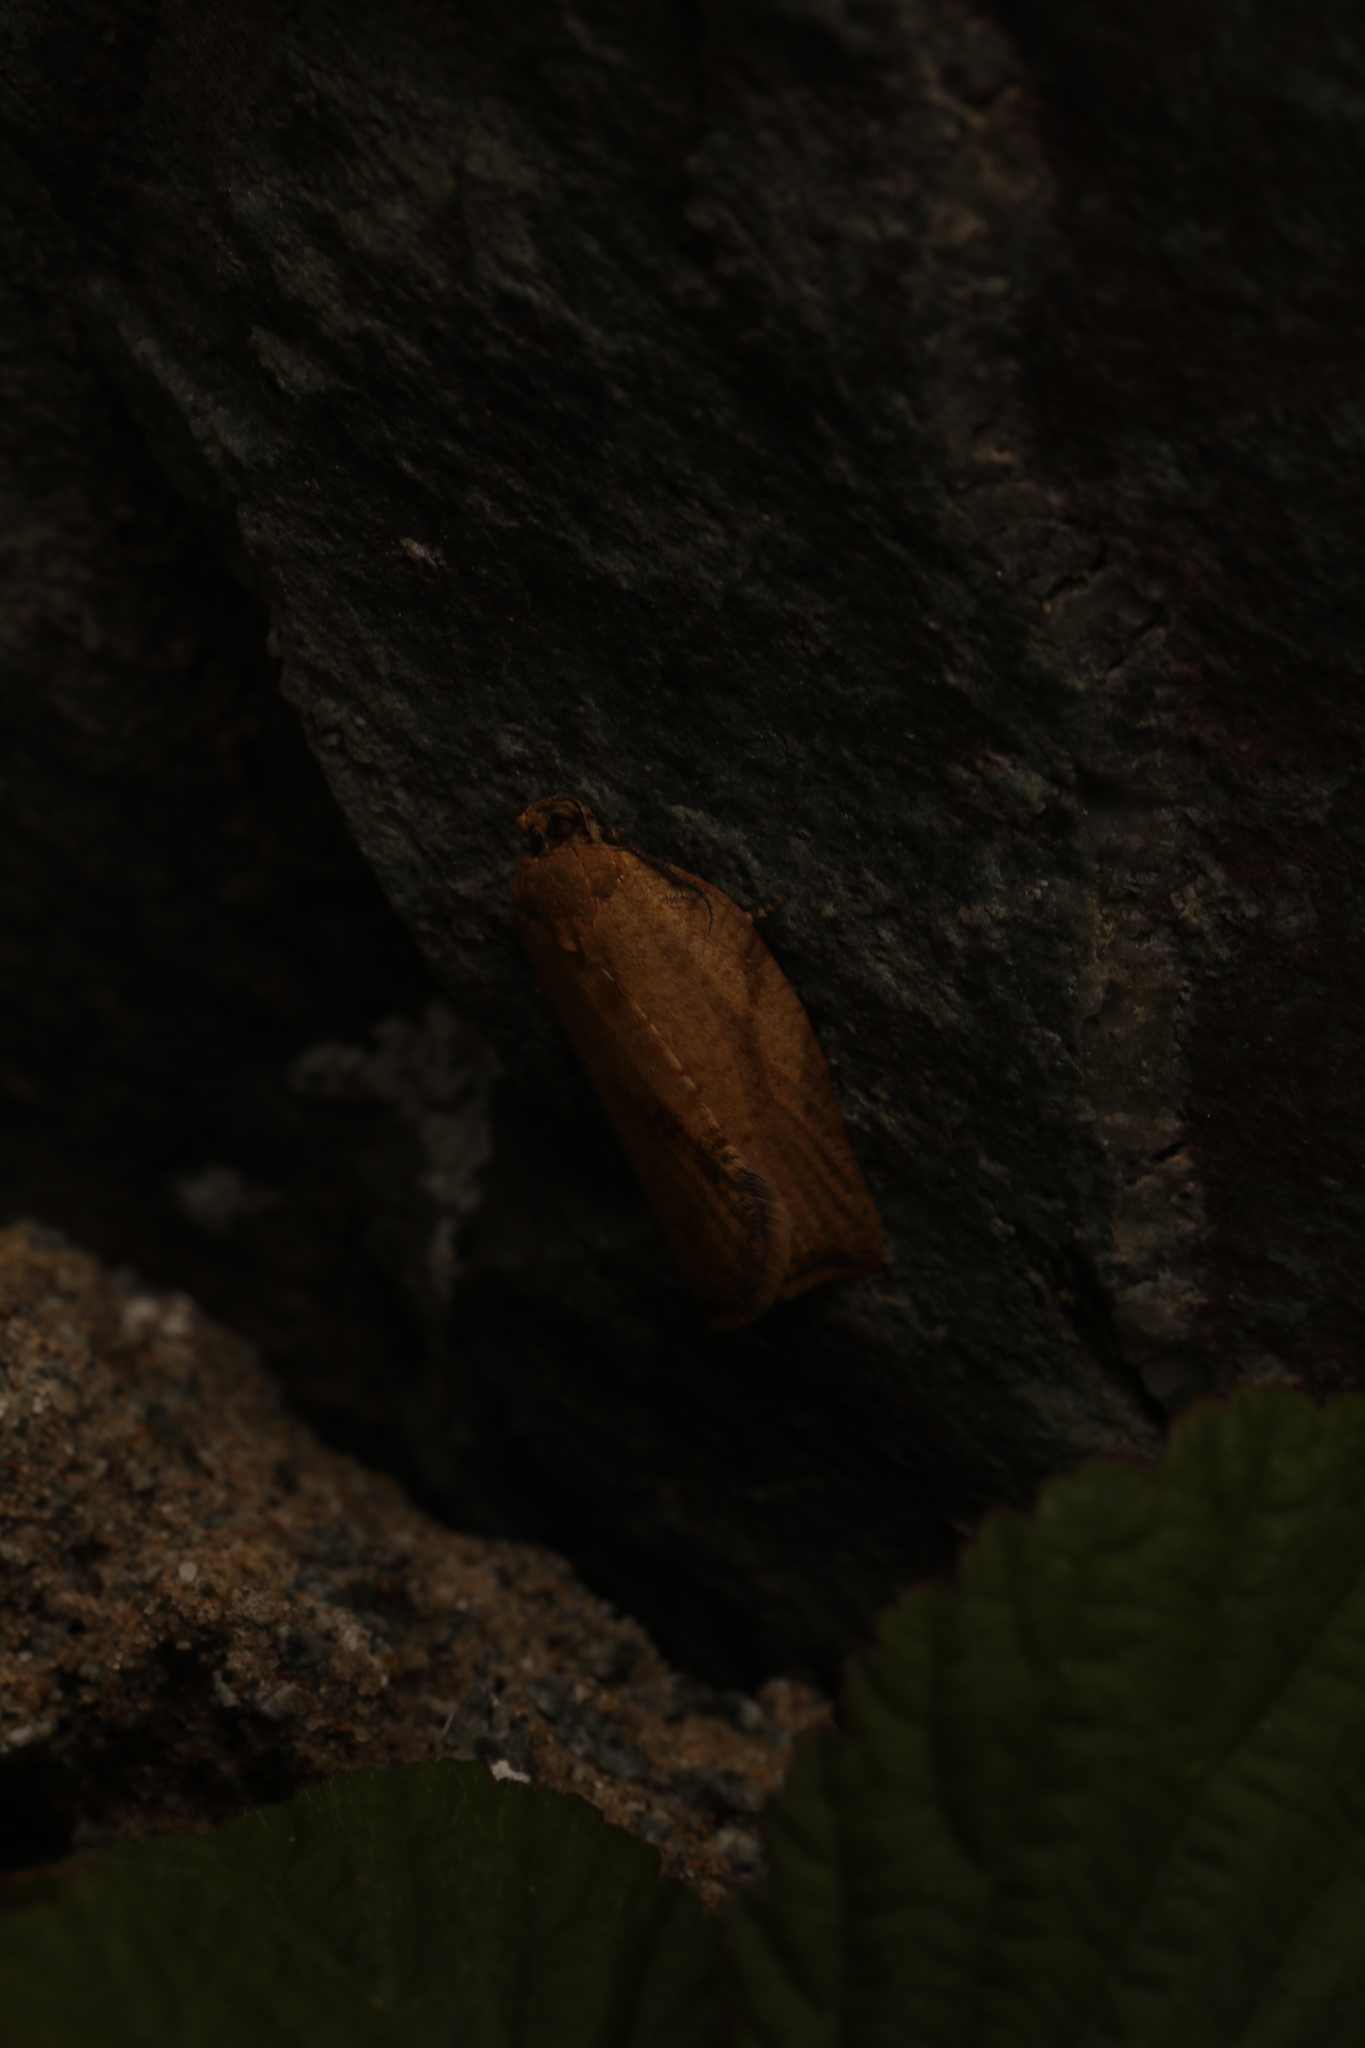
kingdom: Animalia
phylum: Arthropoda
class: Insecta
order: Lepidoptera
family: Tortricidae
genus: Epiphyas
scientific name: Epiphyas postvittana
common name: Light brown apple moth
